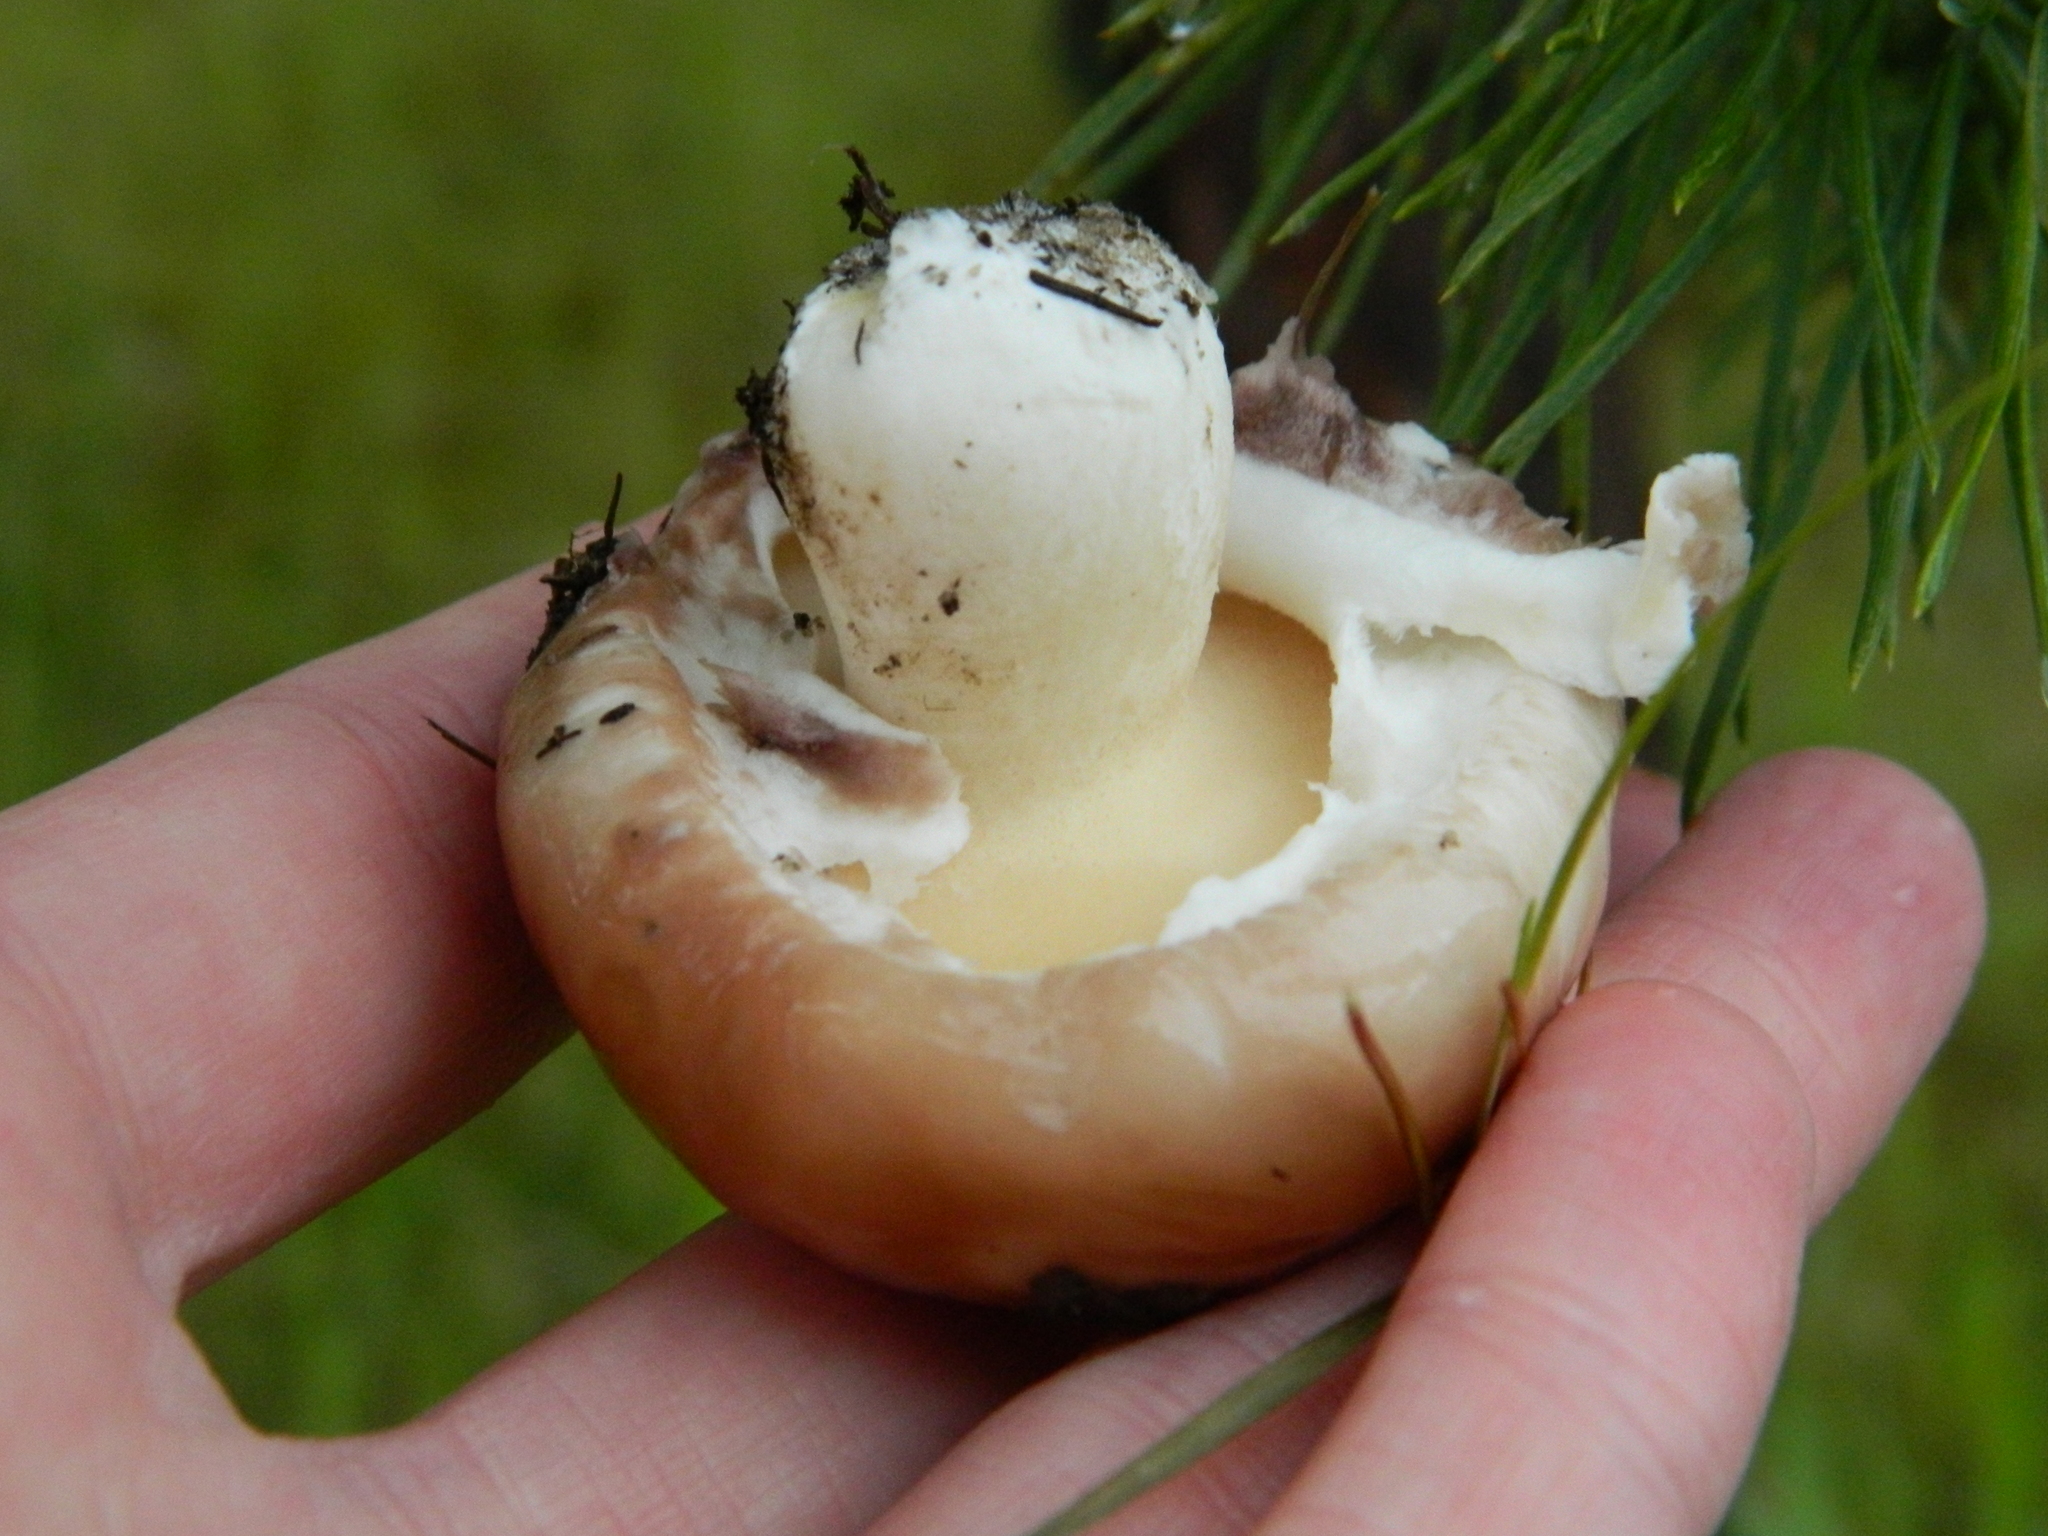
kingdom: Fungi
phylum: Basidiomycota
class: Agaricomycetes
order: Boletales
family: Suillaceae
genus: Suillus
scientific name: Suillus luteus
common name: Slippery jack
